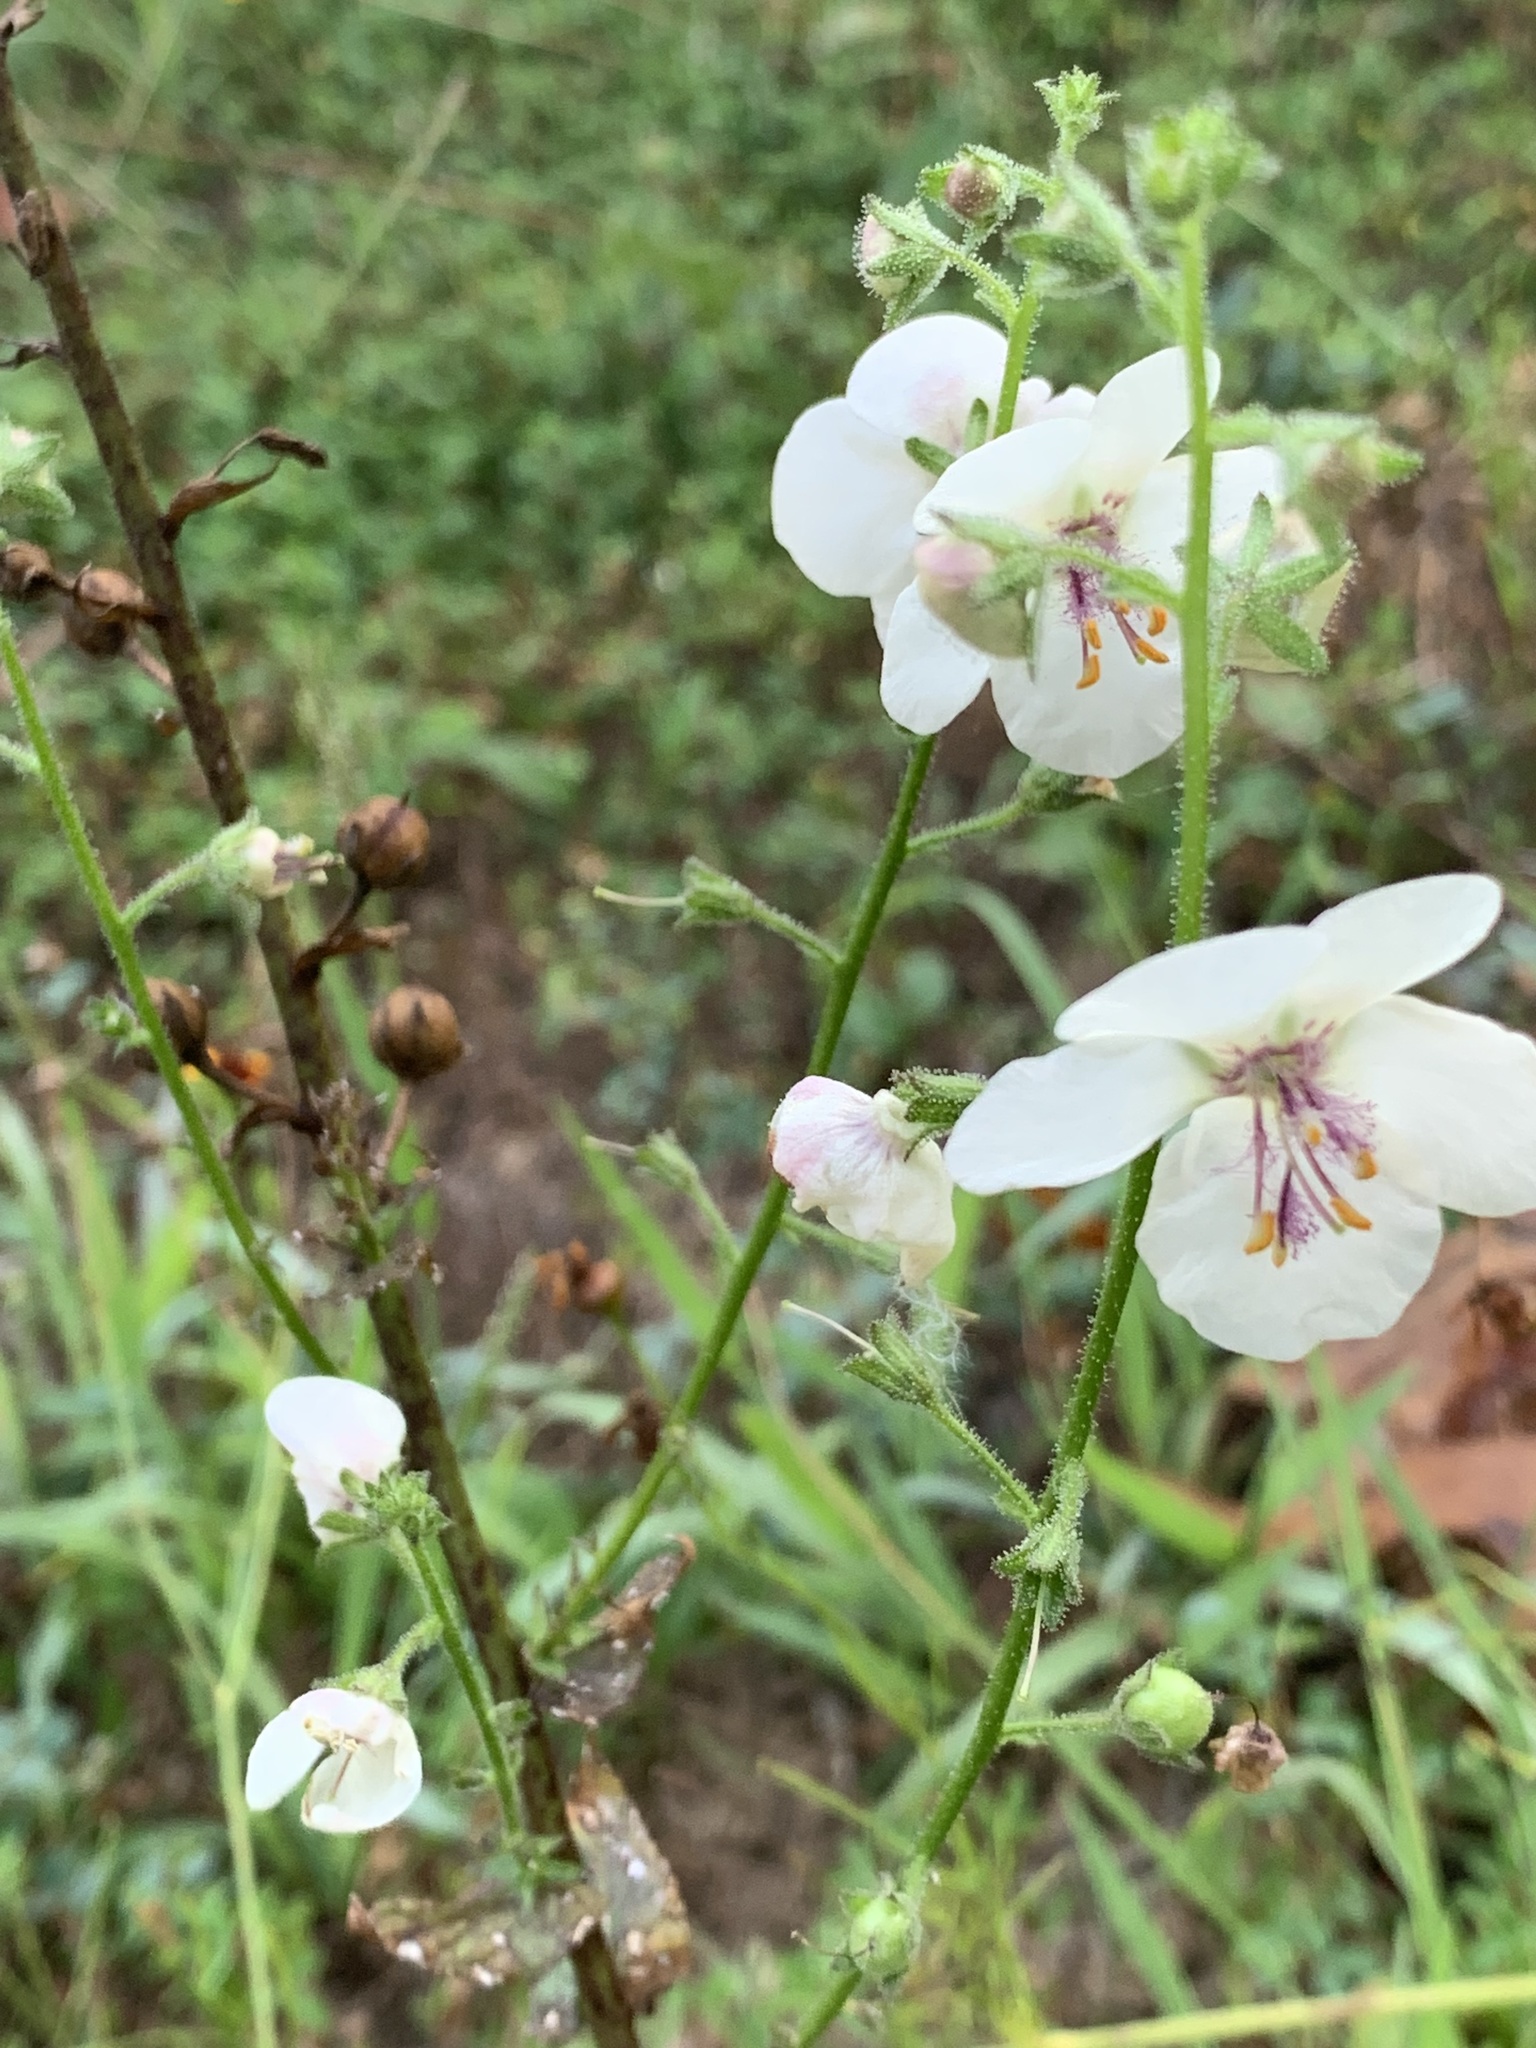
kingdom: Plantae
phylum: Tracheophyta
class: Magnoliopsida
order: Lamiales
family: Scrophulariaceae
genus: Verbascum
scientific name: Verbascum blattaria
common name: Moth mullein
